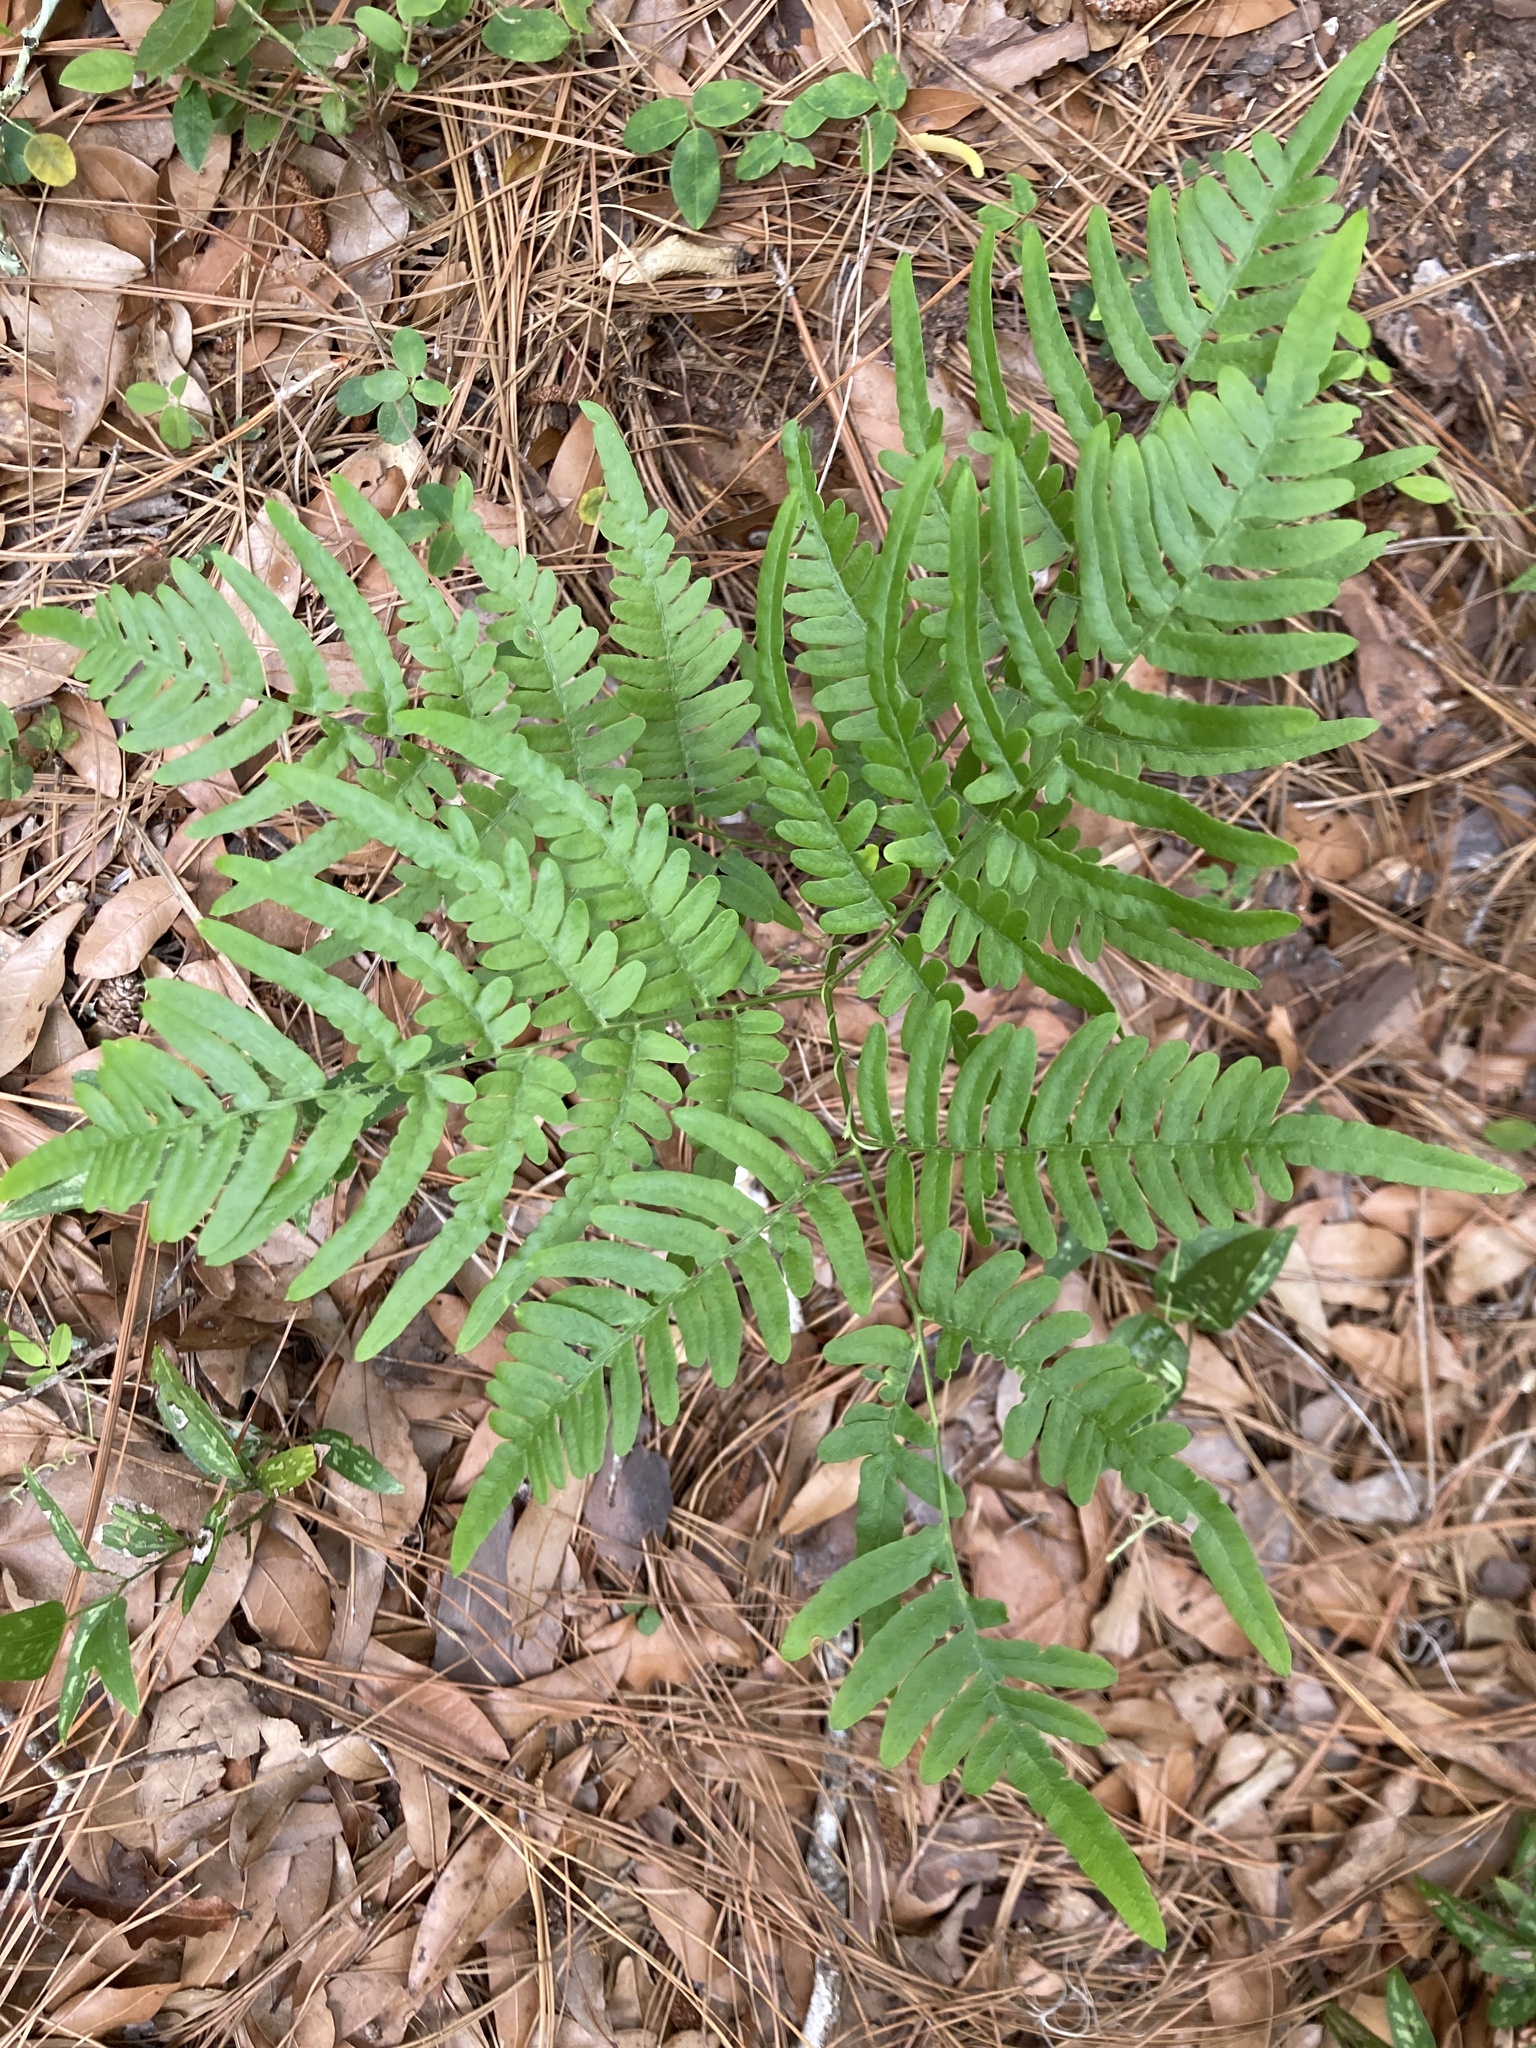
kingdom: Plantae
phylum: Tracheophyta
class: Polypodiopsida
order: Polypodiales
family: Dennstaedtiaceae
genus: Pteridium
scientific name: Pteridium aquilinum
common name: Bracken
